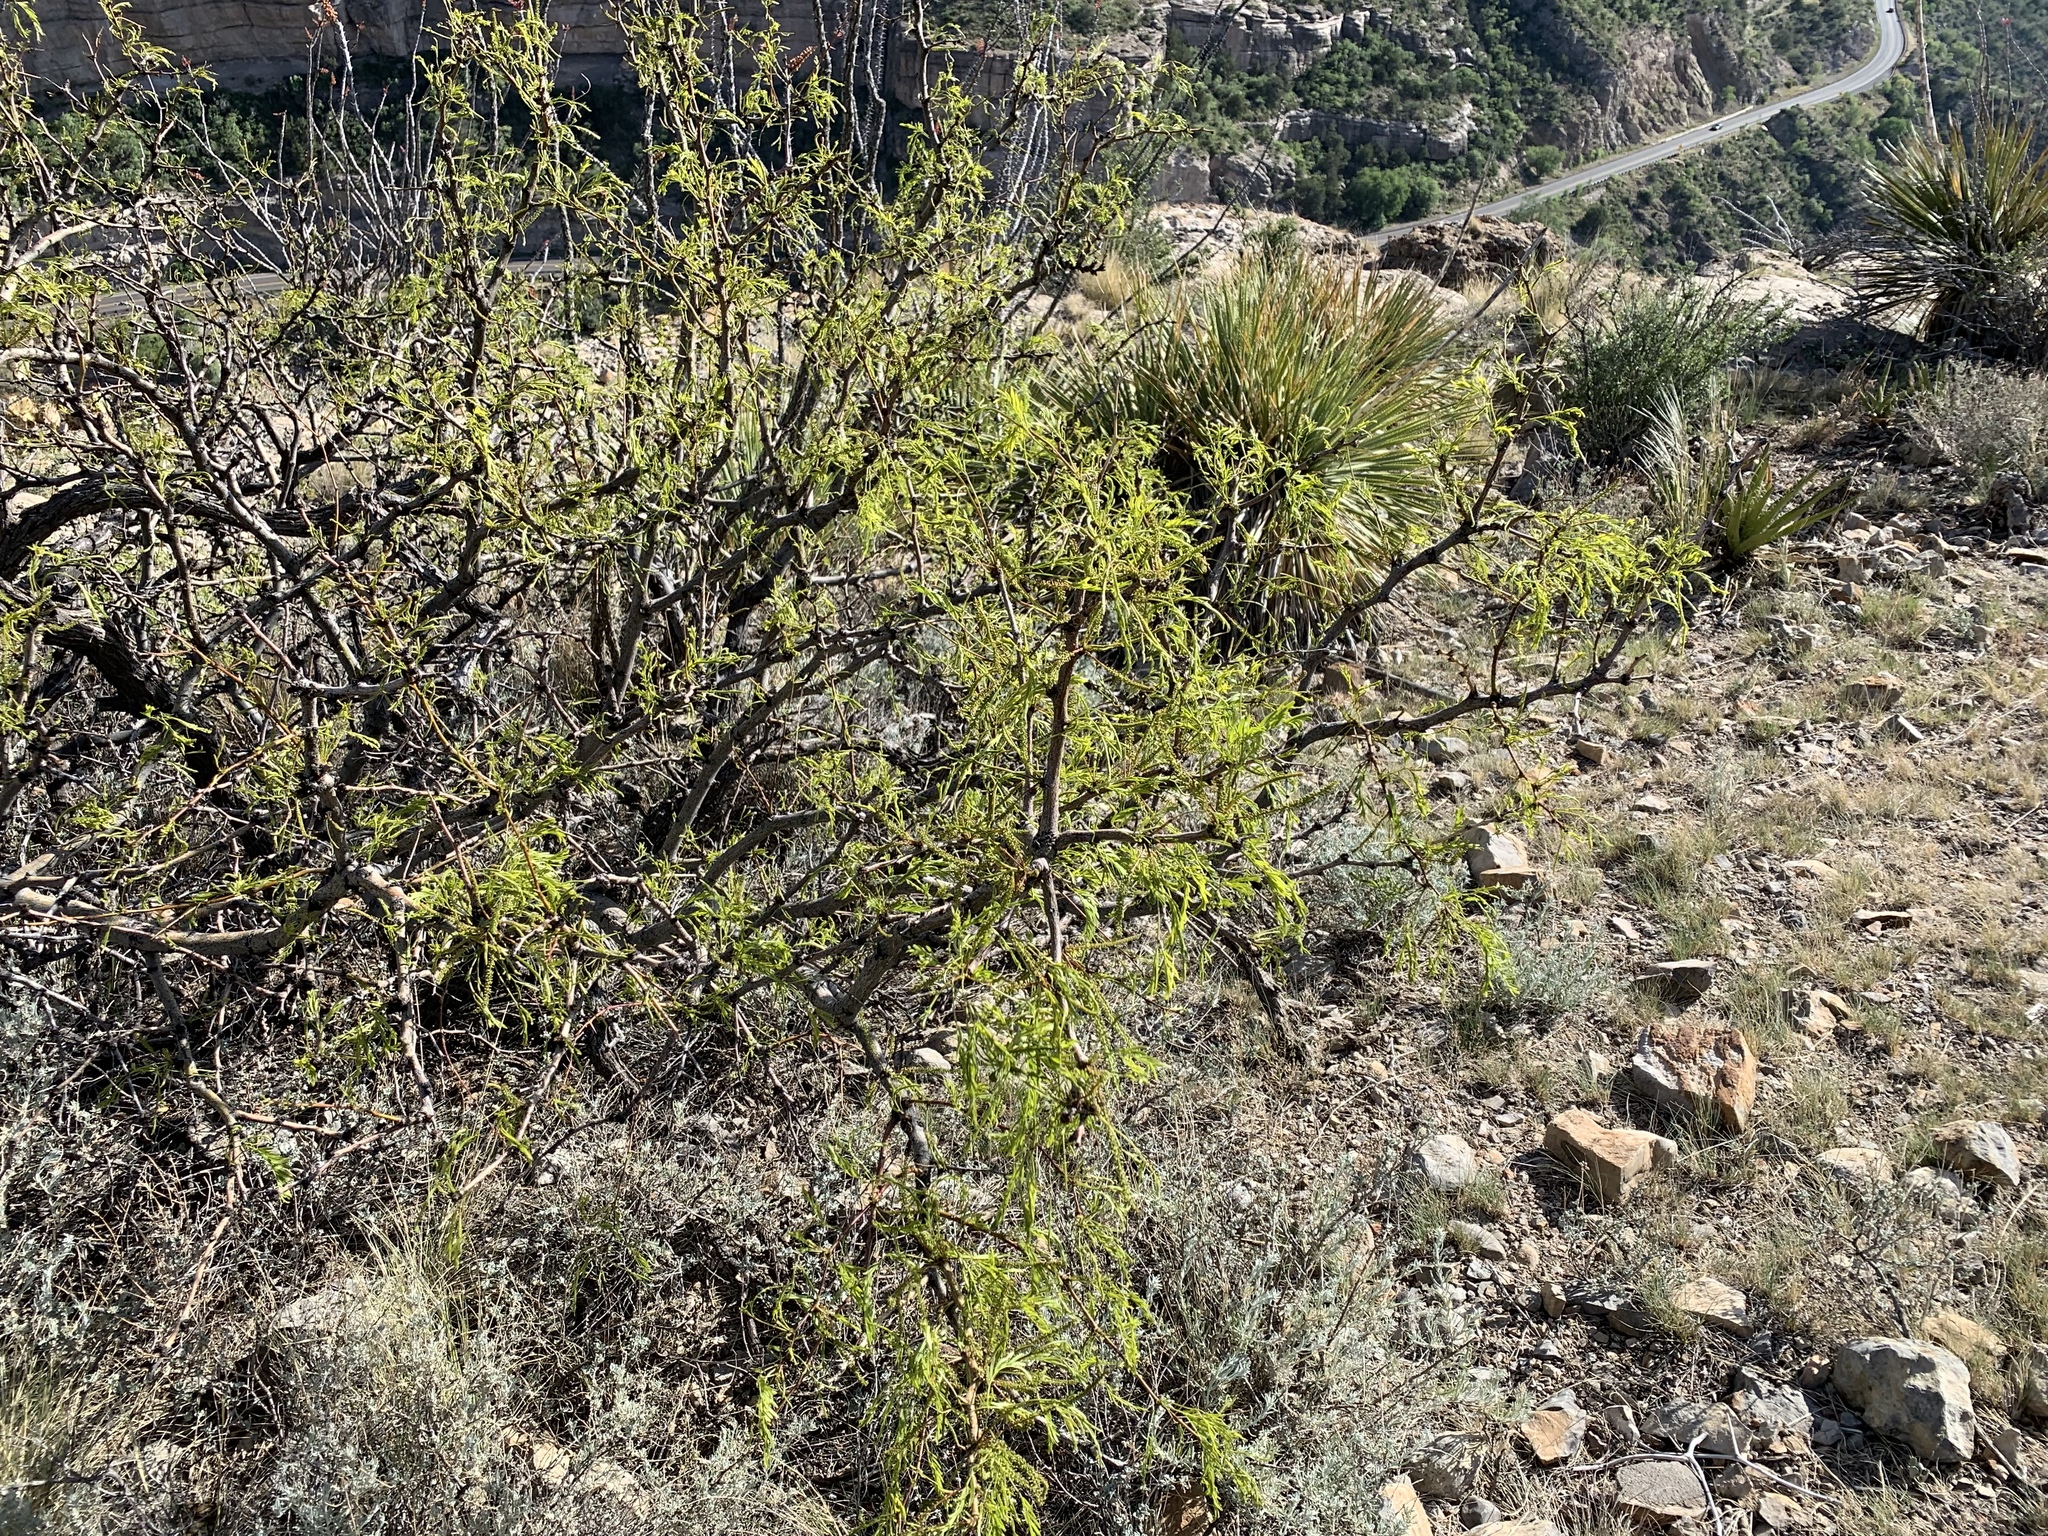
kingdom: Plantae
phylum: Tracheophyta
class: Magnoliopsida
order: Fabales
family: Fabaceae
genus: Prosopis
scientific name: Prosopis glandulosa
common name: Honey mesquite
